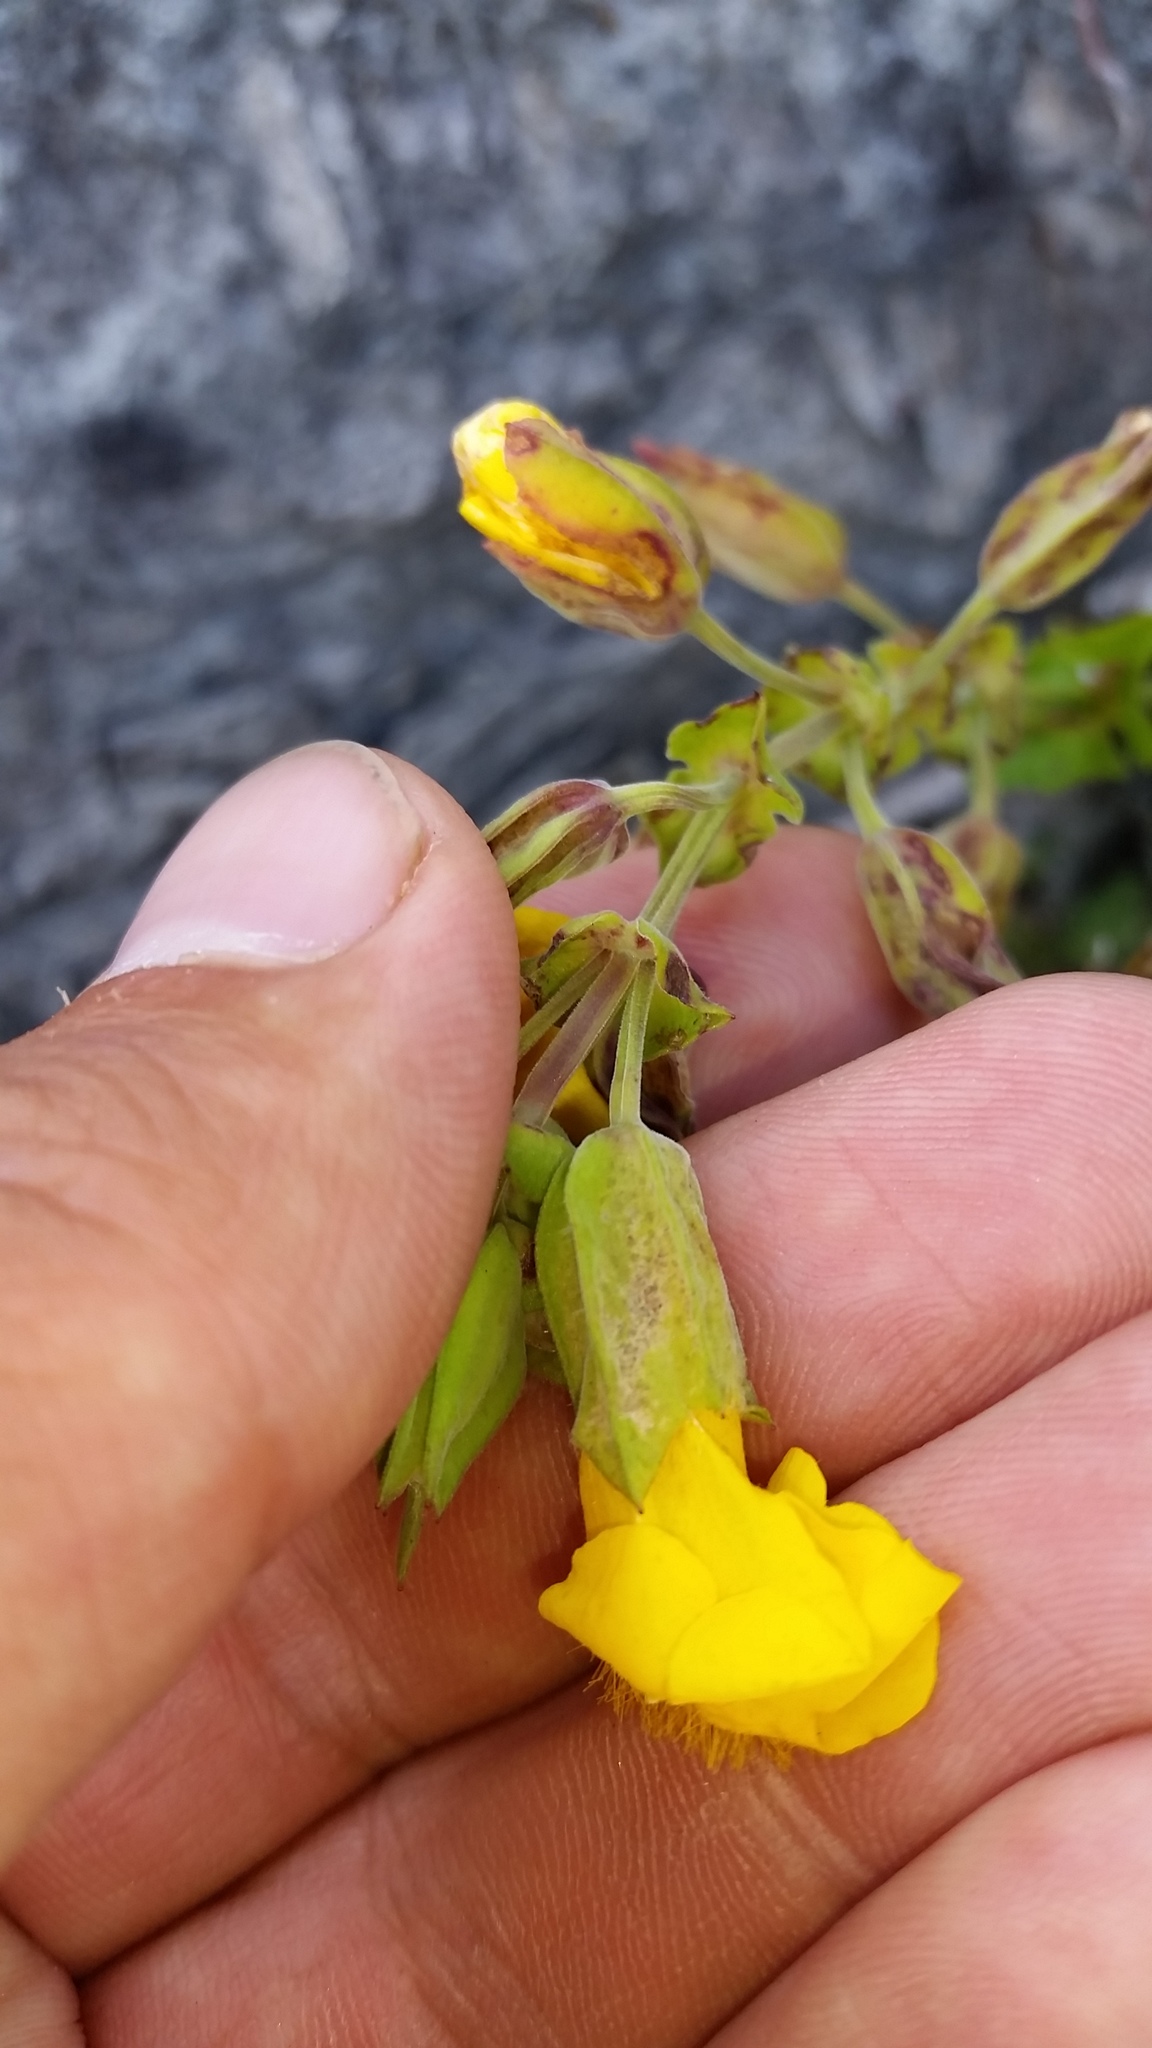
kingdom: Plantae
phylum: Tracheophyta
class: Magnoliopsida
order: Lamiales
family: Phrymaceae
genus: Erythranthe
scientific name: Erythranthe guttata
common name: Monkeyflower
